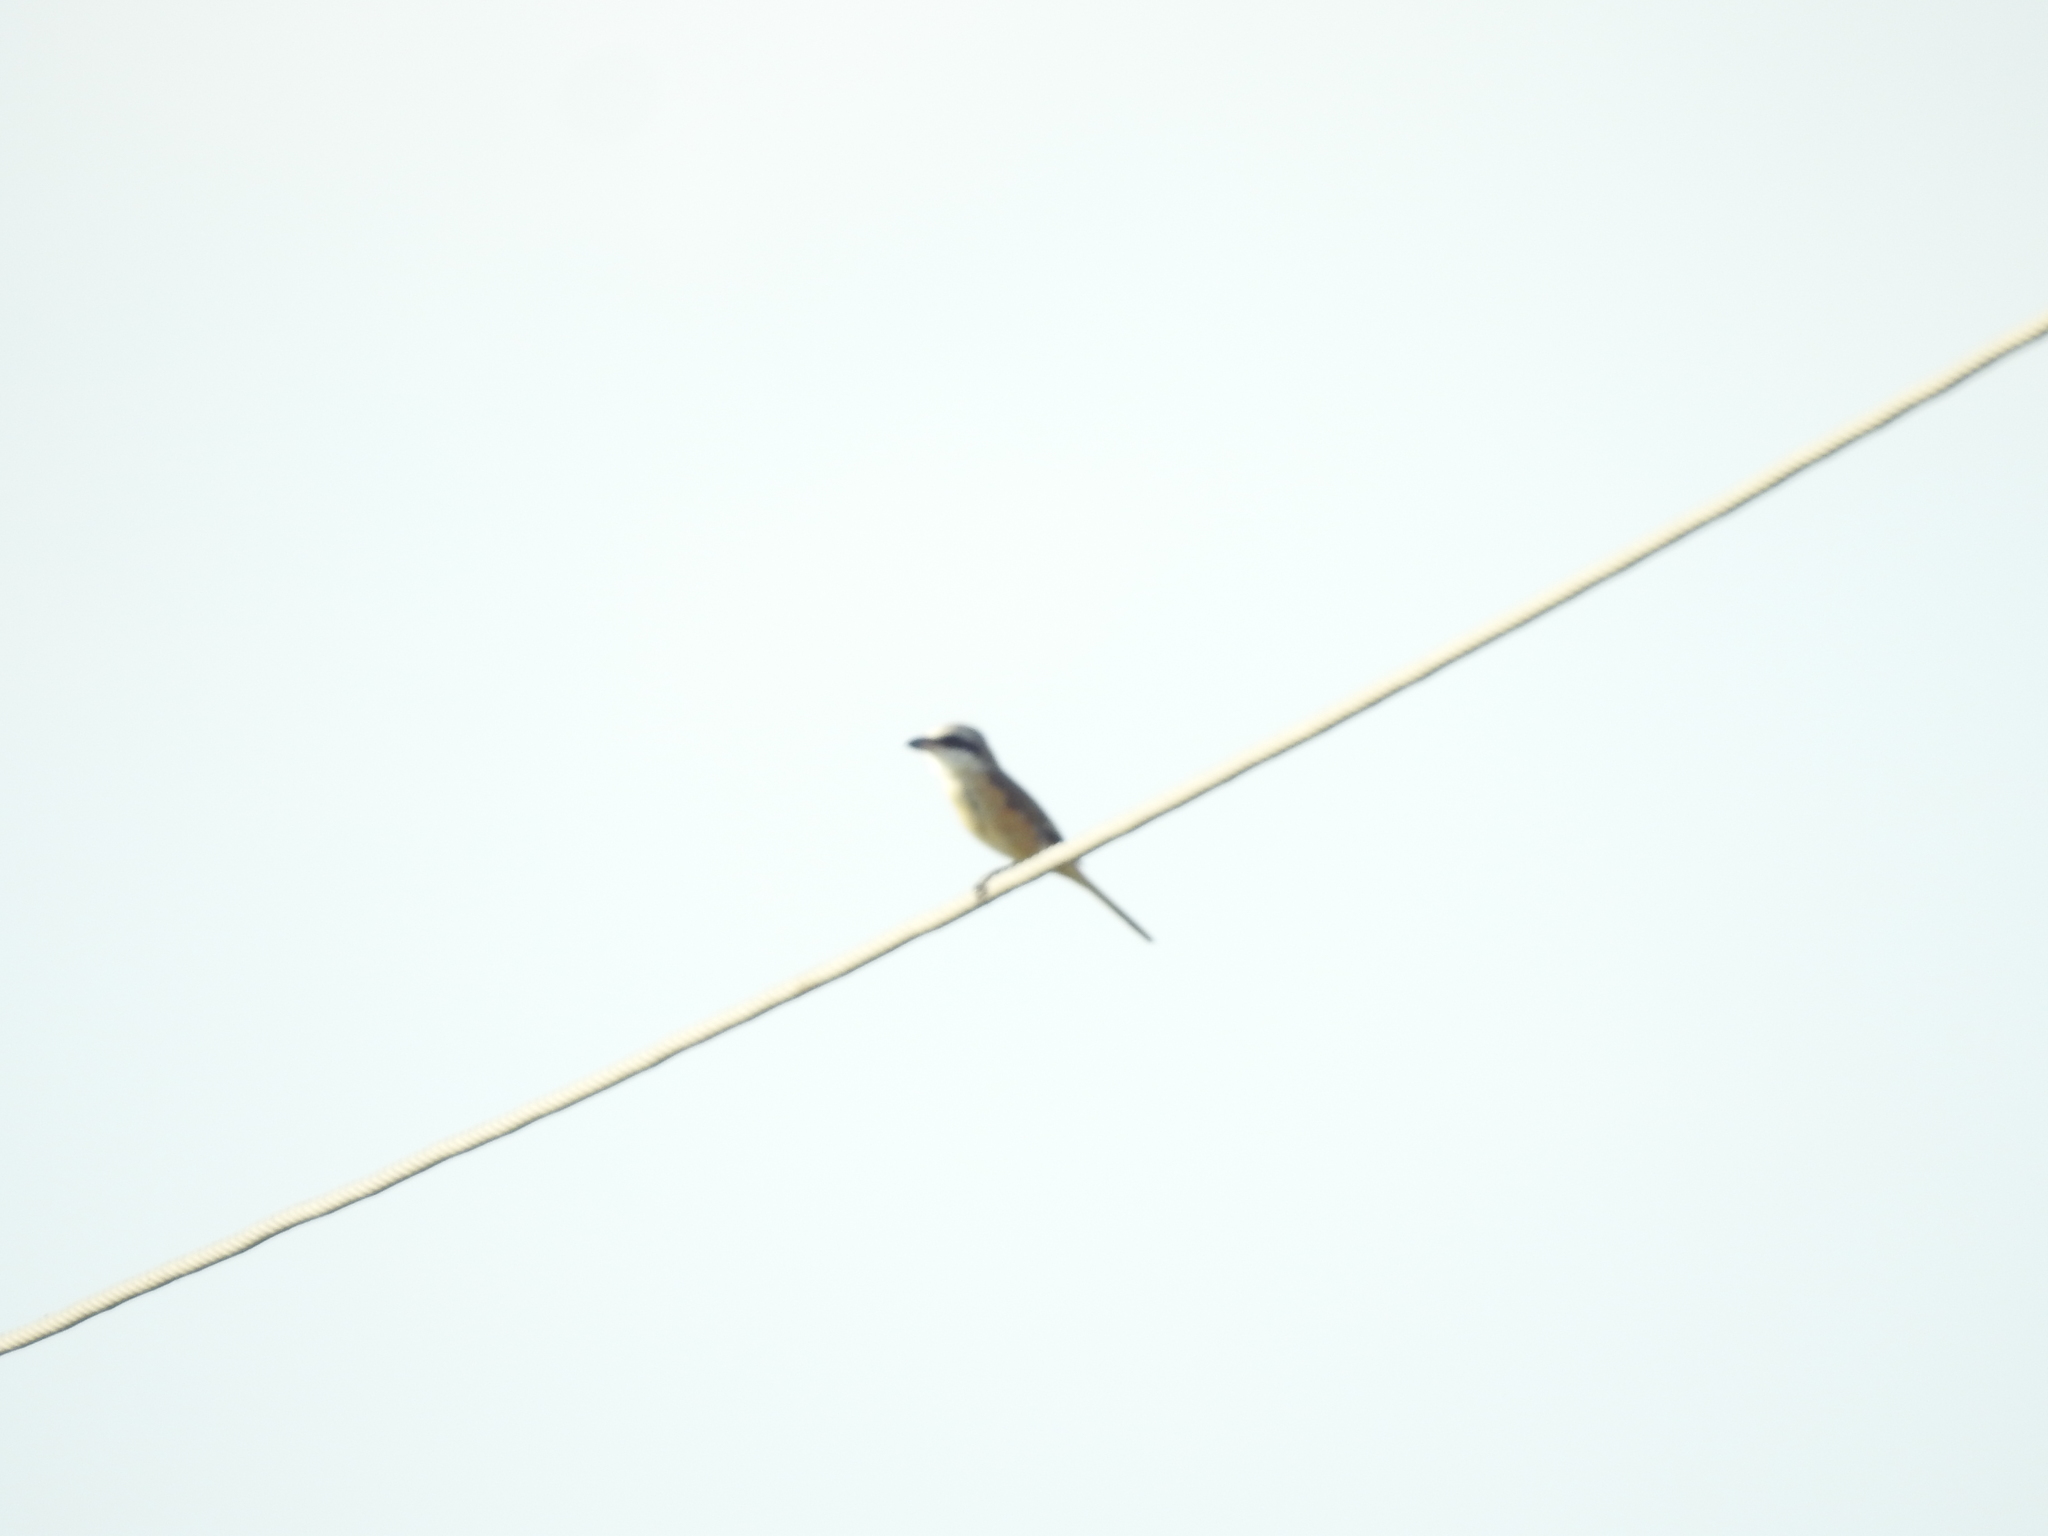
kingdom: Animalia
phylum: Chordata
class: Aves
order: Passeriformes
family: Laniidae
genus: Lanius
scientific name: Lanius schach
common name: Long-tailed shrike
